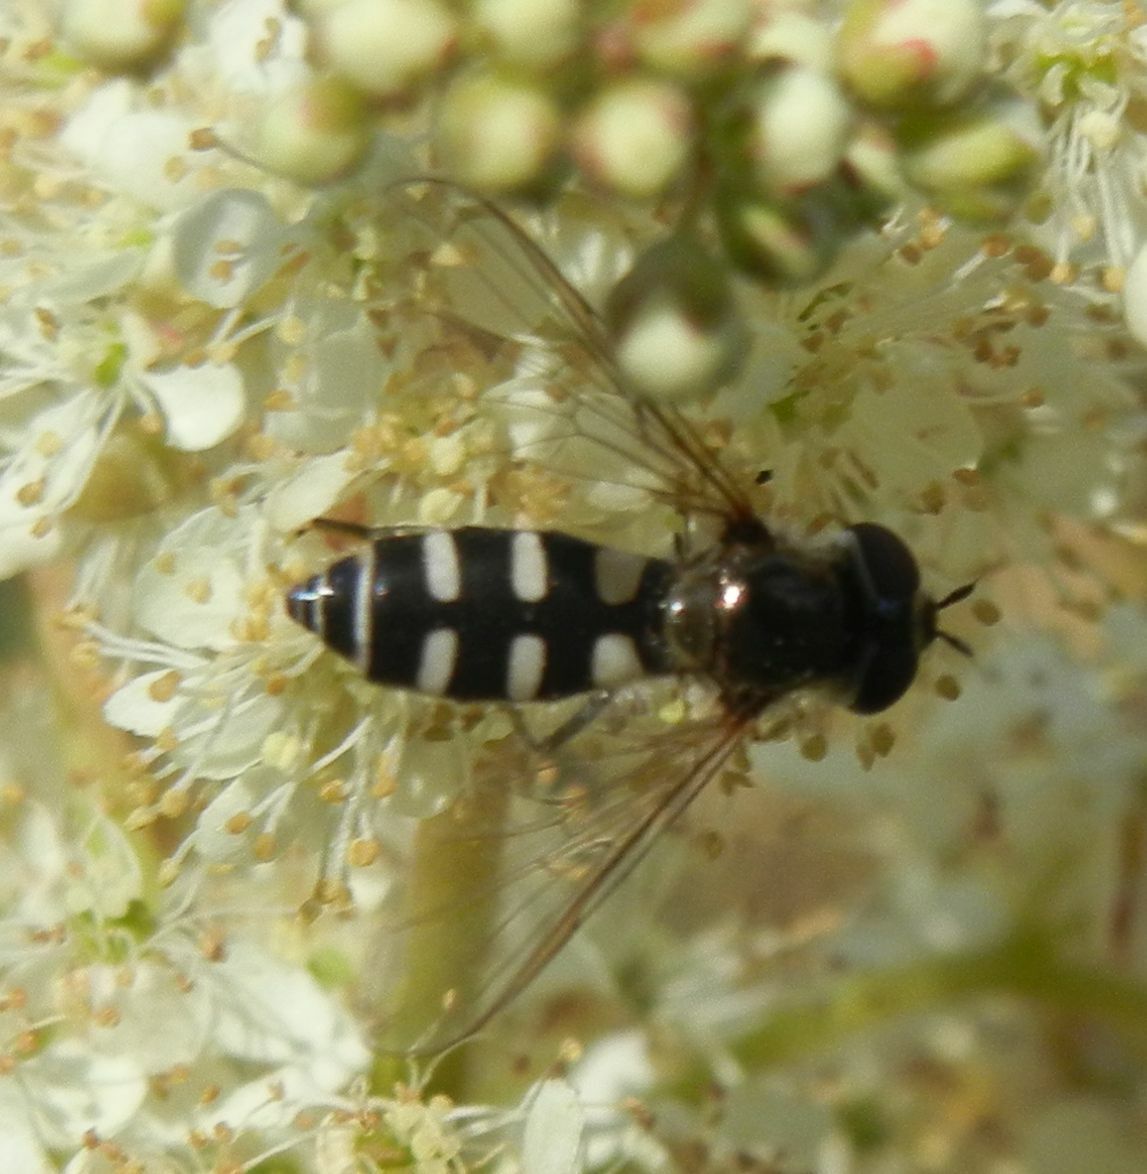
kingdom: Animalia
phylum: Arthropoda
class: Insecta
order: Diptera
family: Syrphidae
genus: Melangyna
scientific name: Melangyna umbellatarum
